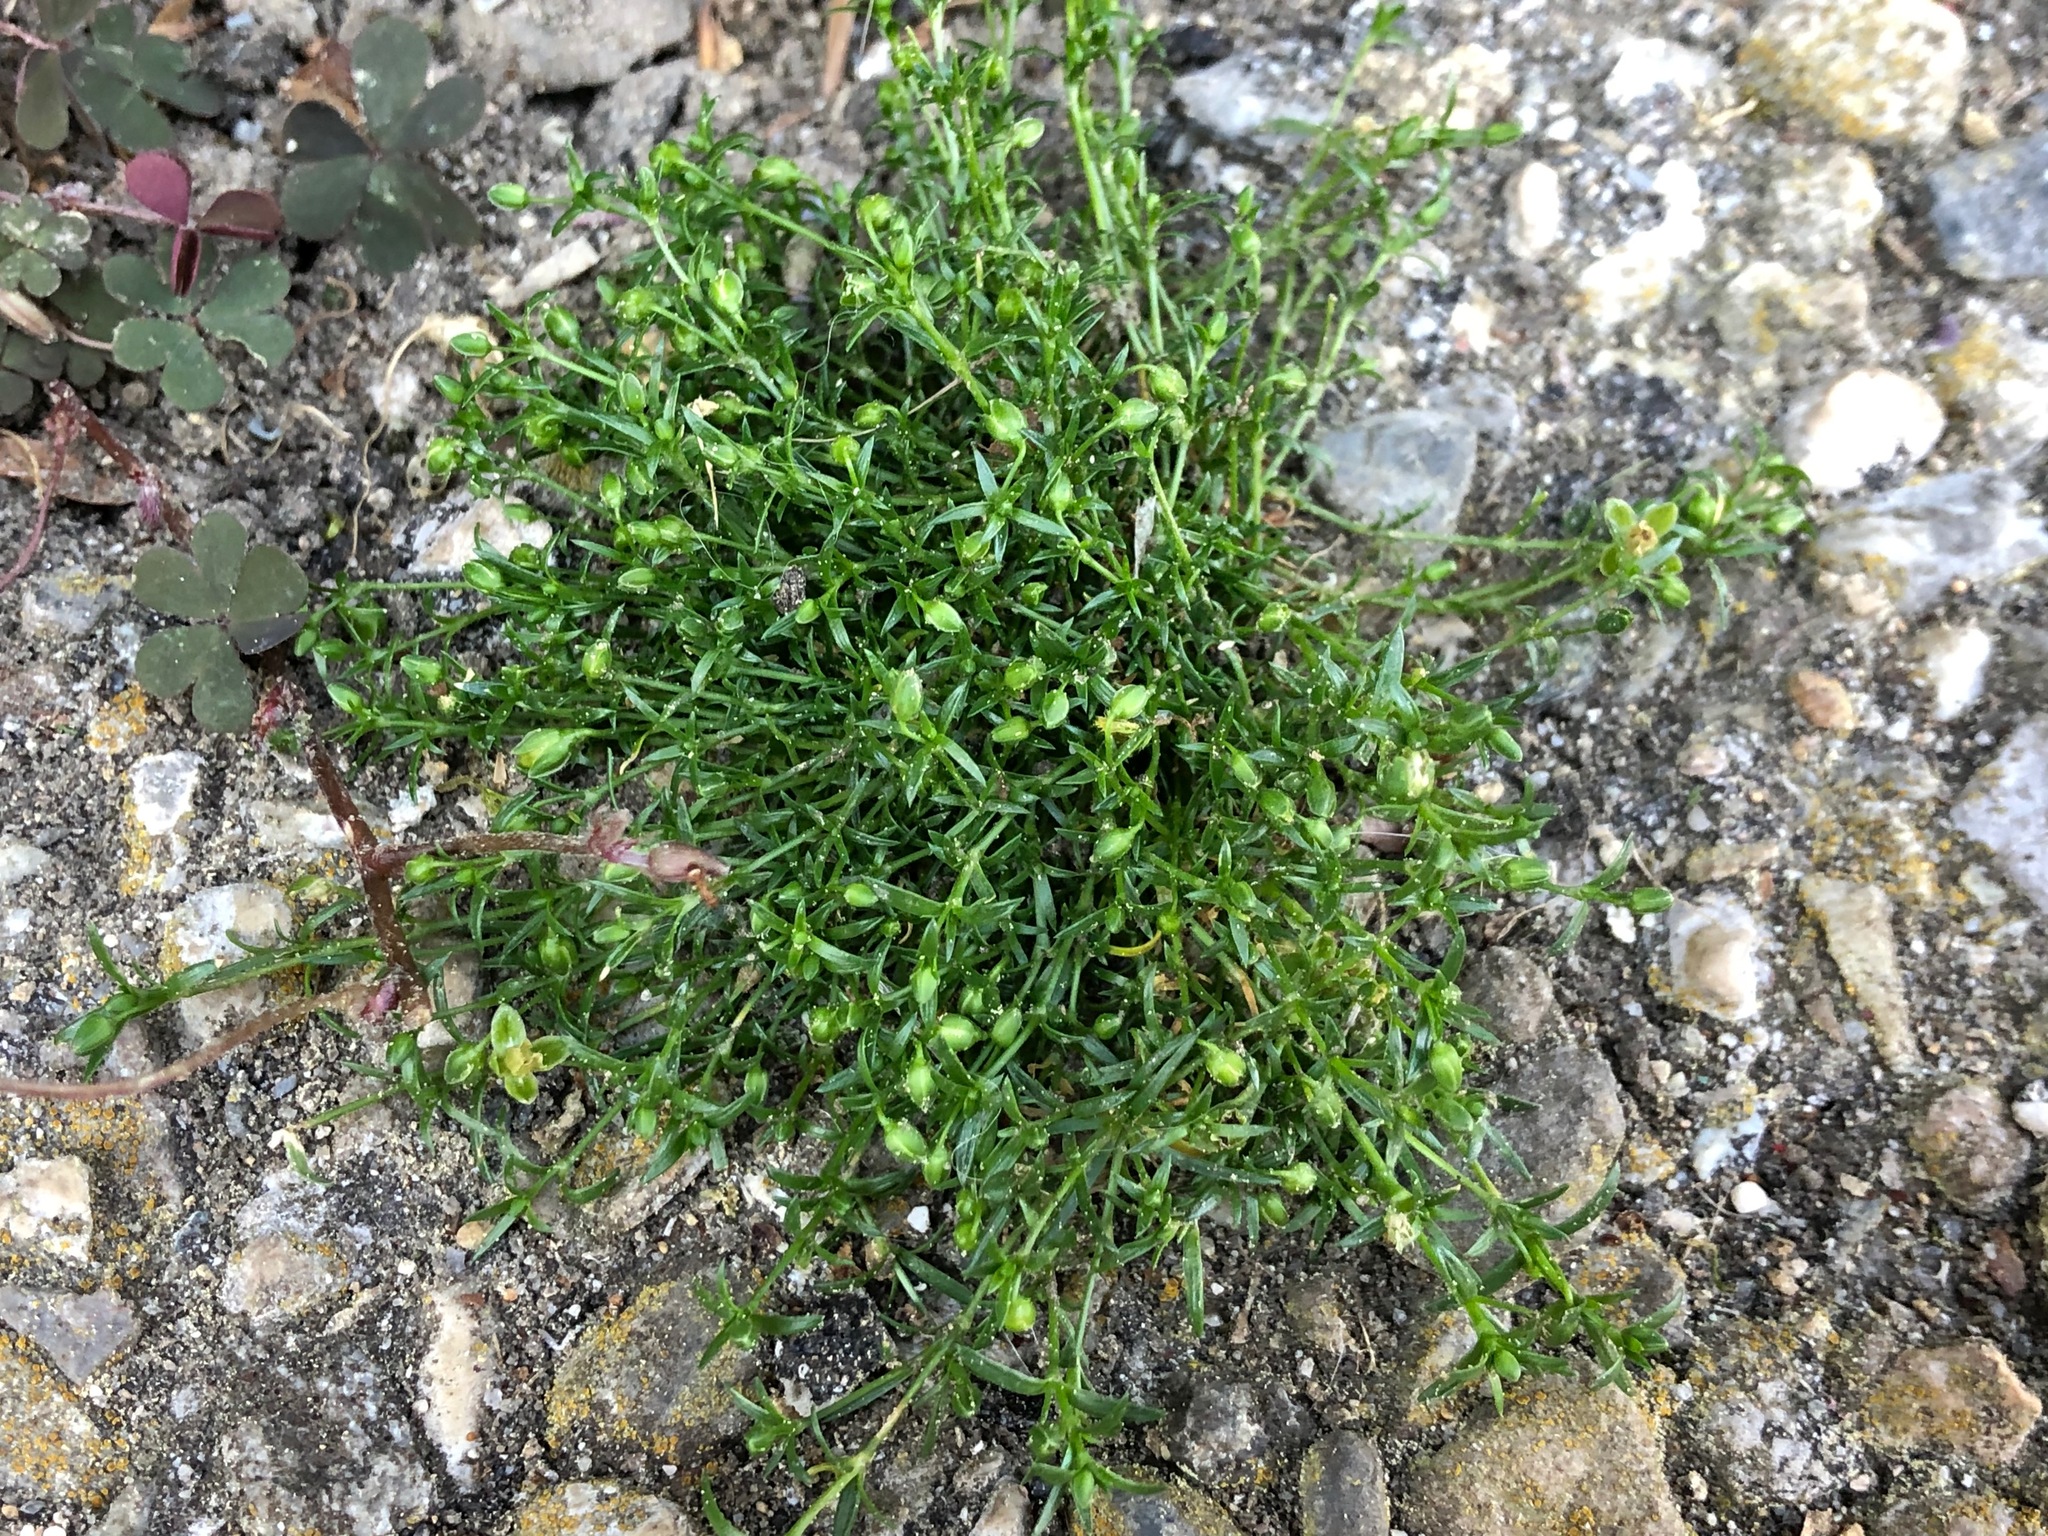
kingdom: Plantae
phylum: Tracheophyta
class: Magnoliopsida
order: Caryophyllales
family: Caryophyllaceae
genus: Sagina
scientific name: Sagina procumbens
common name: Procumbent pearlwort
